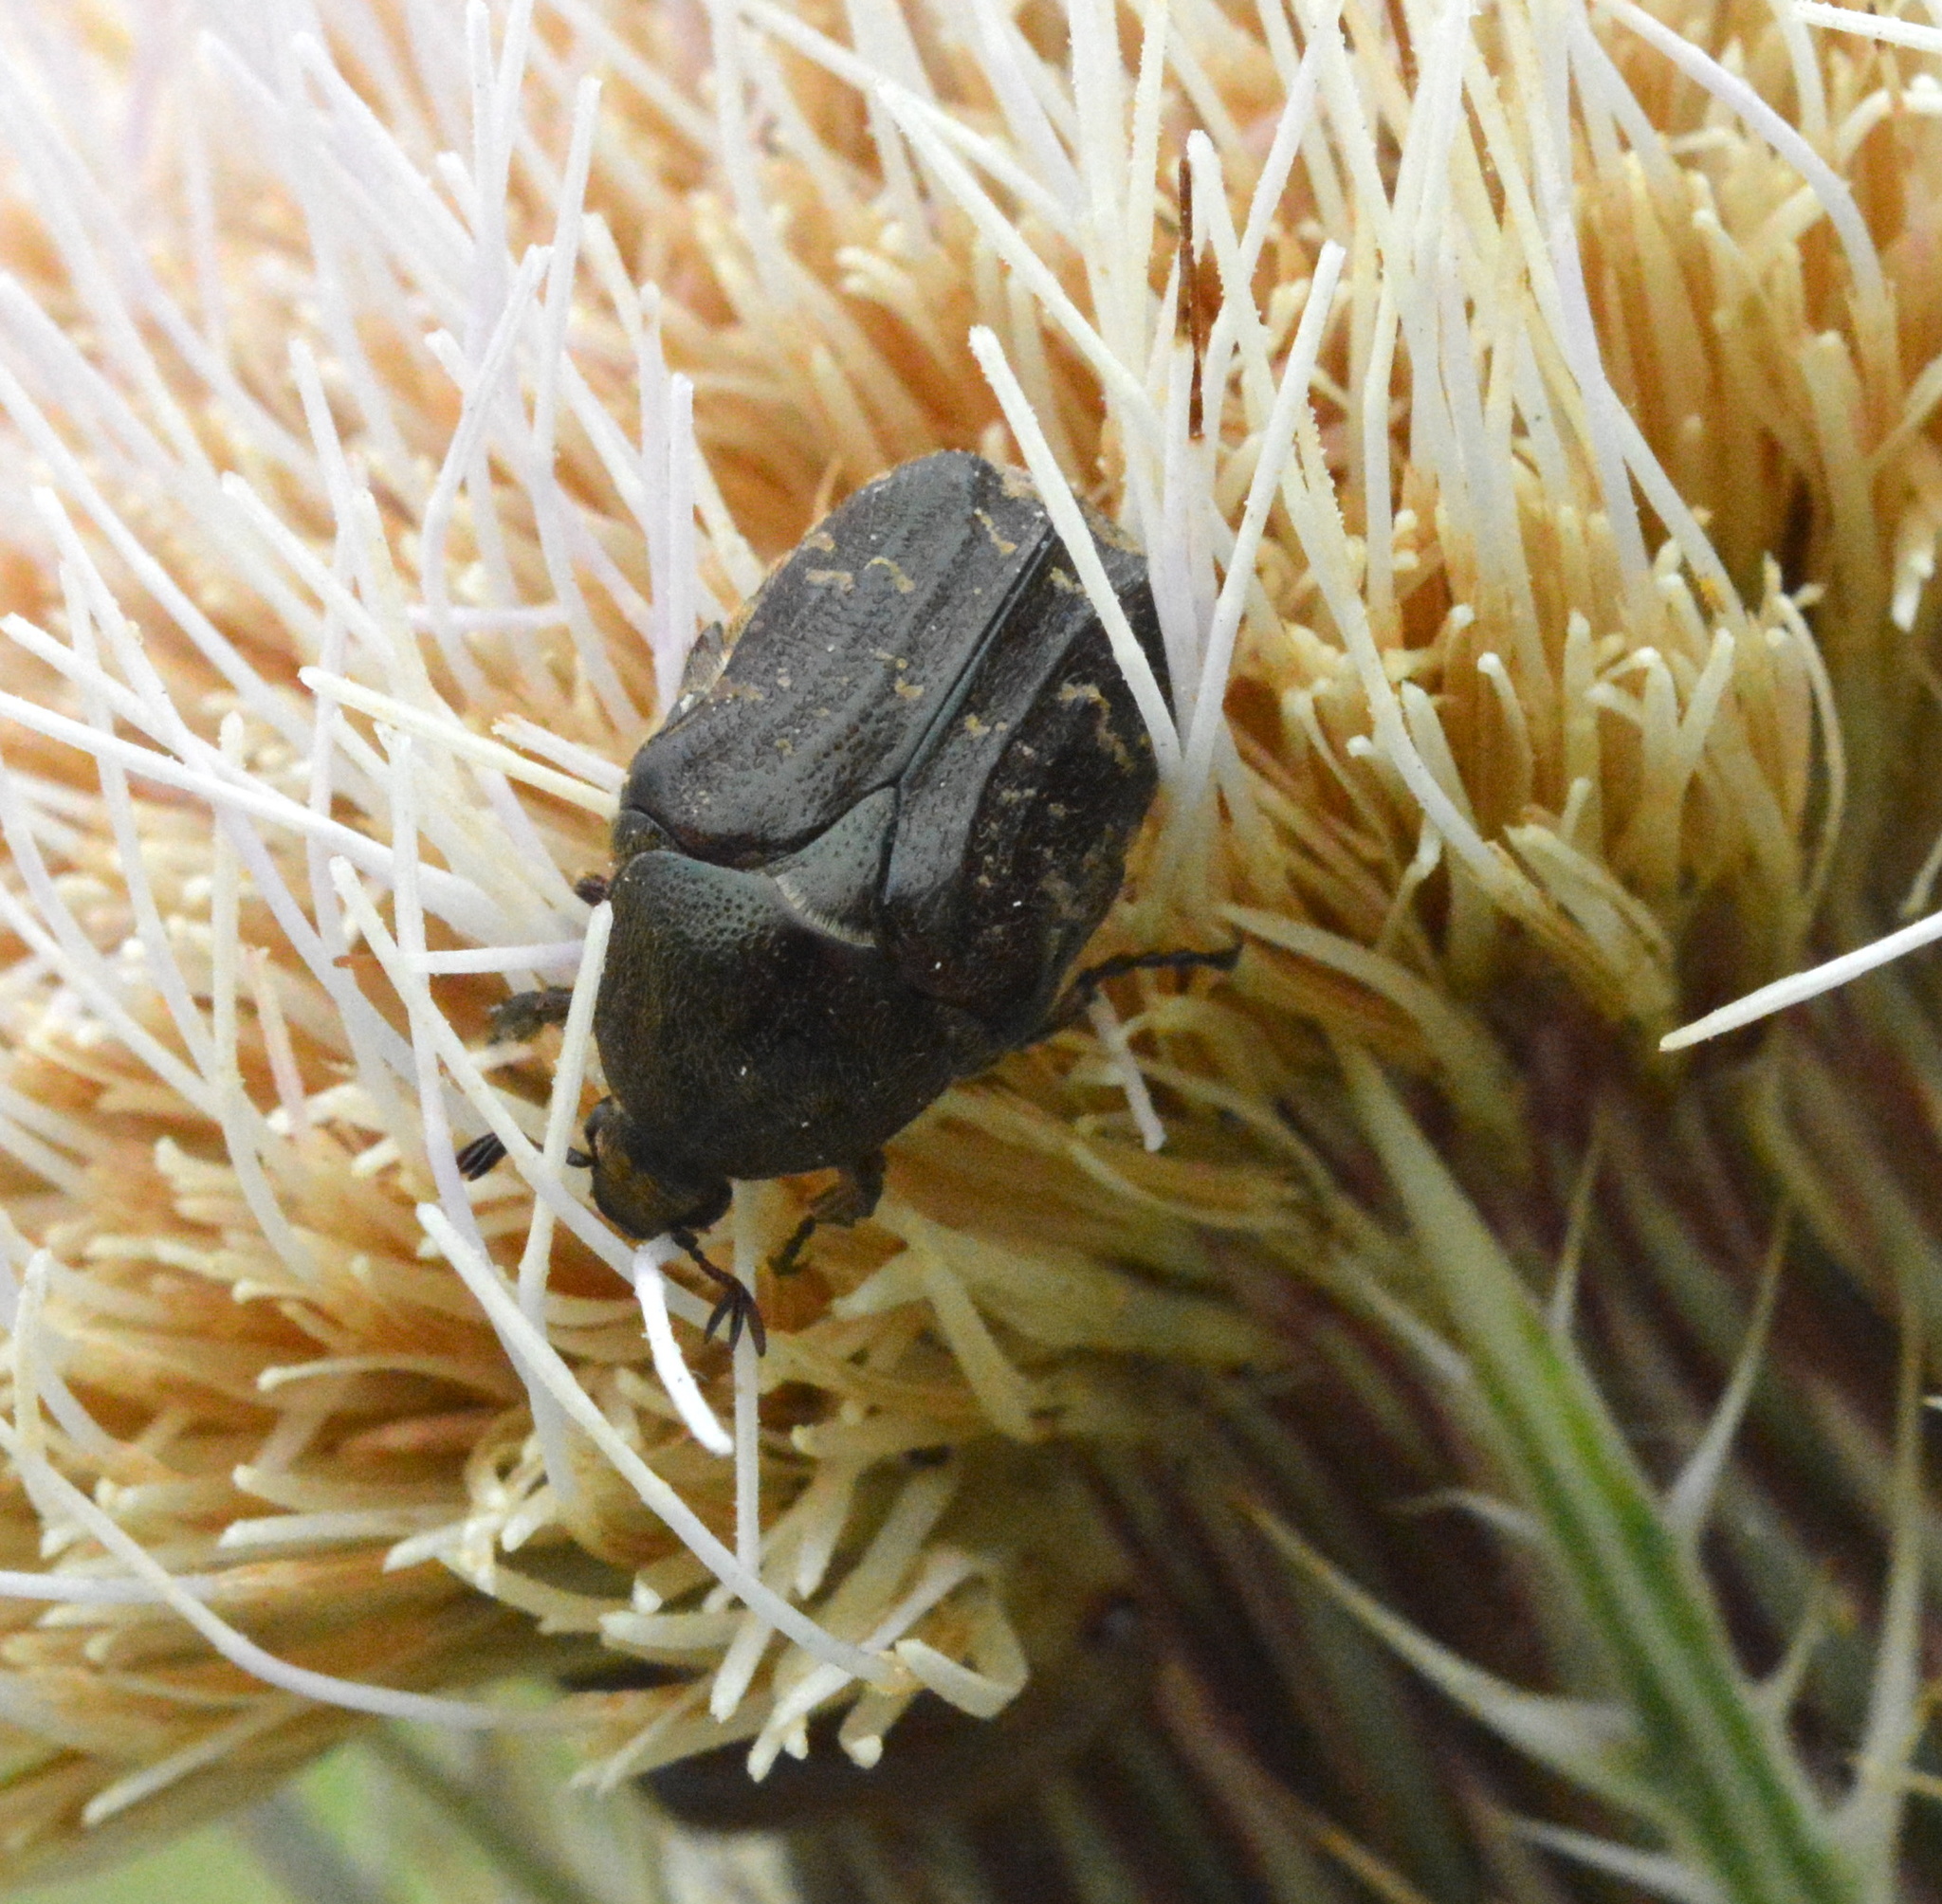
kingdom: Animalia
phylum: Arthropoda
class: Insecta
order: Coleoptera
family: Scarabaeidae
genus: Euphoria
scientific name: Euphoria sepulcralis
